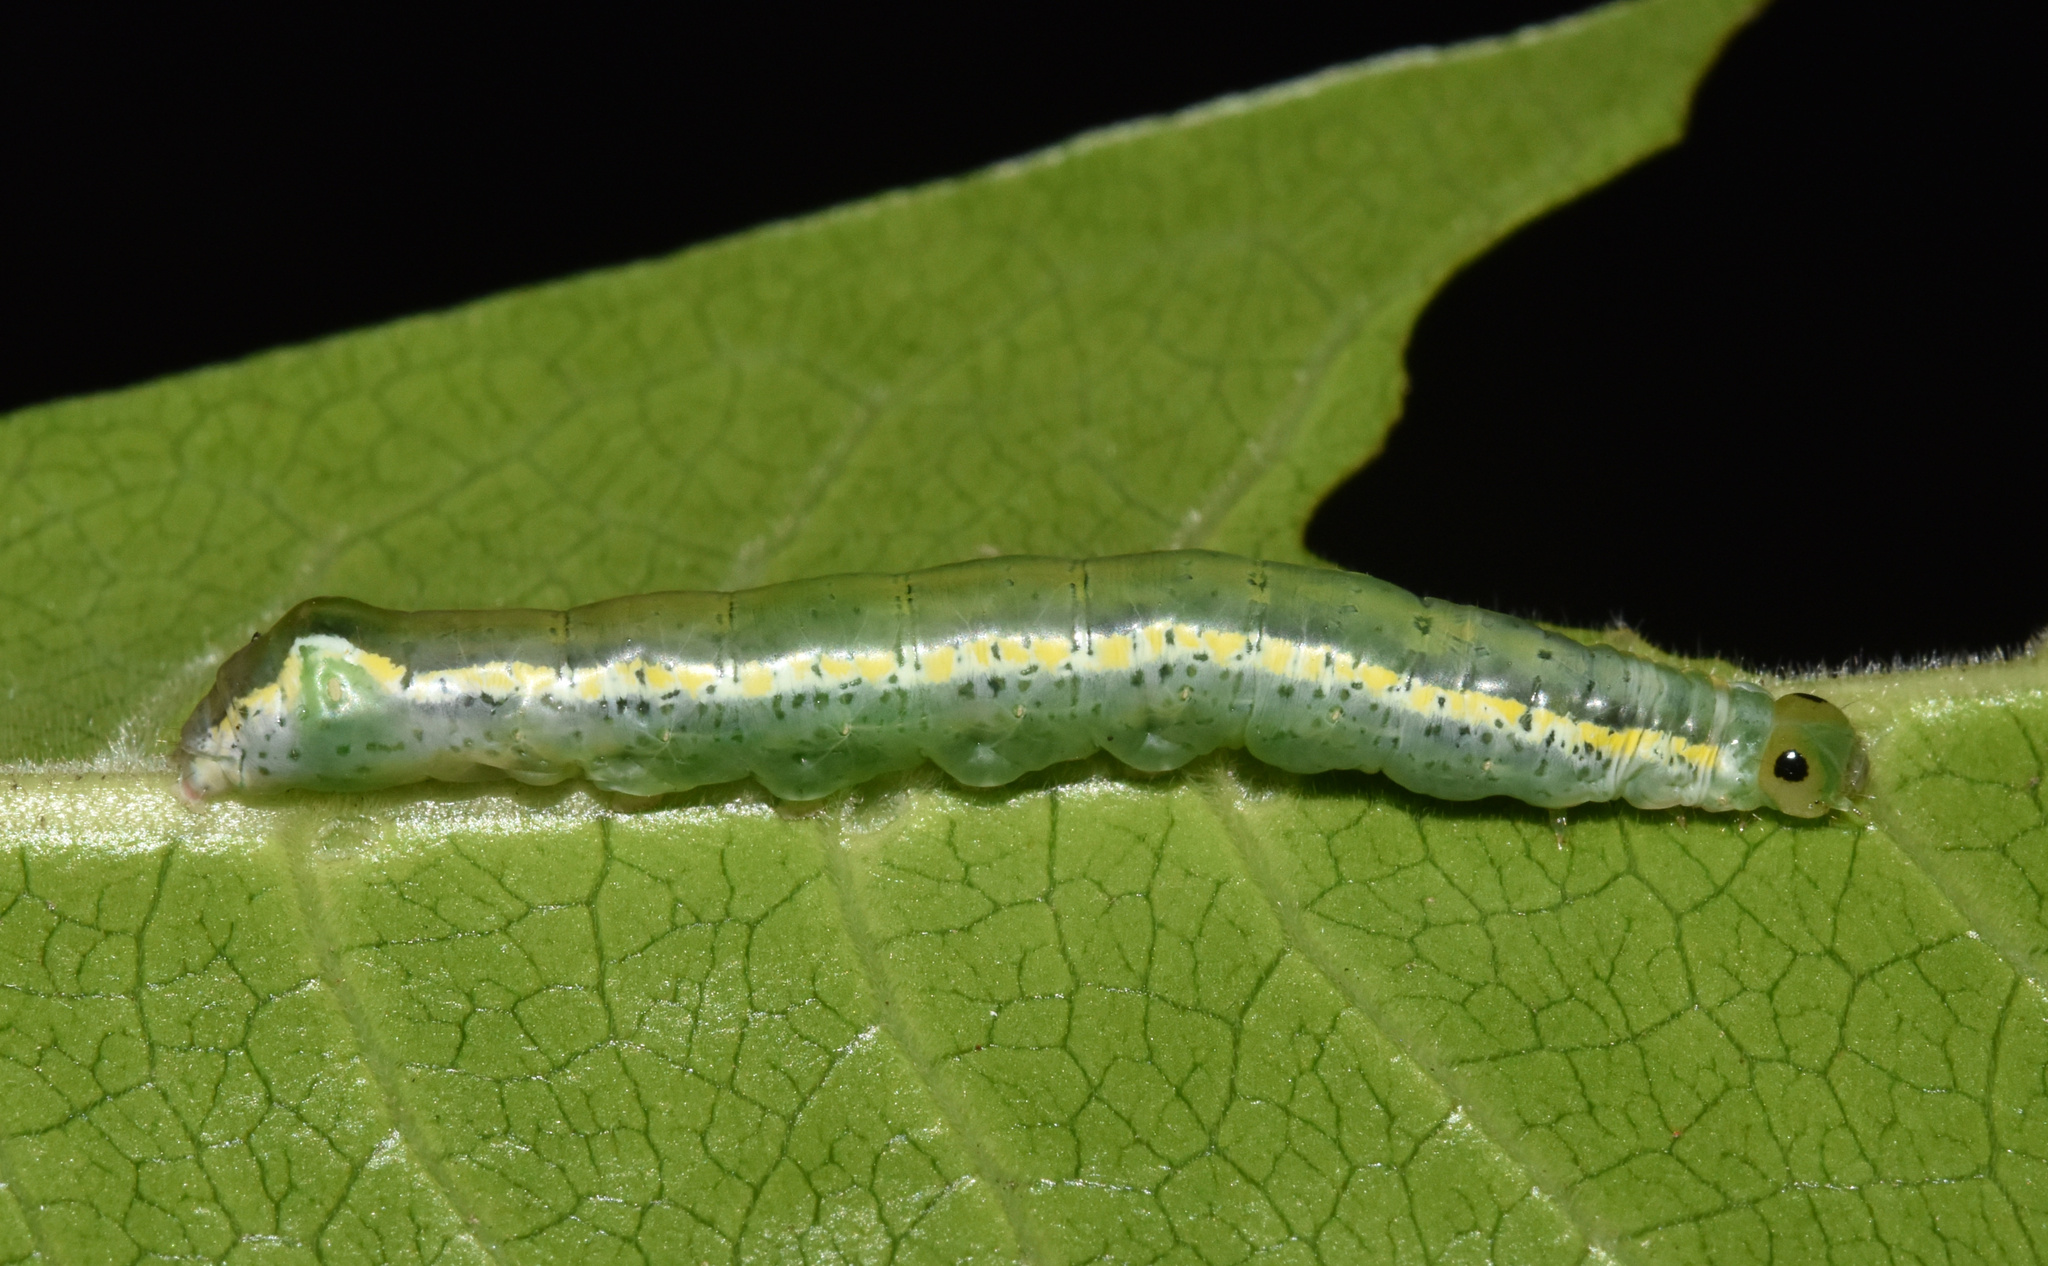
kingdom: Animalia
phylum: Arthropoda
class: Insecta
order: Lepidoptera
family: Noctuidae
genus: Euplexia
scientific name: Euplexia catephiodes
